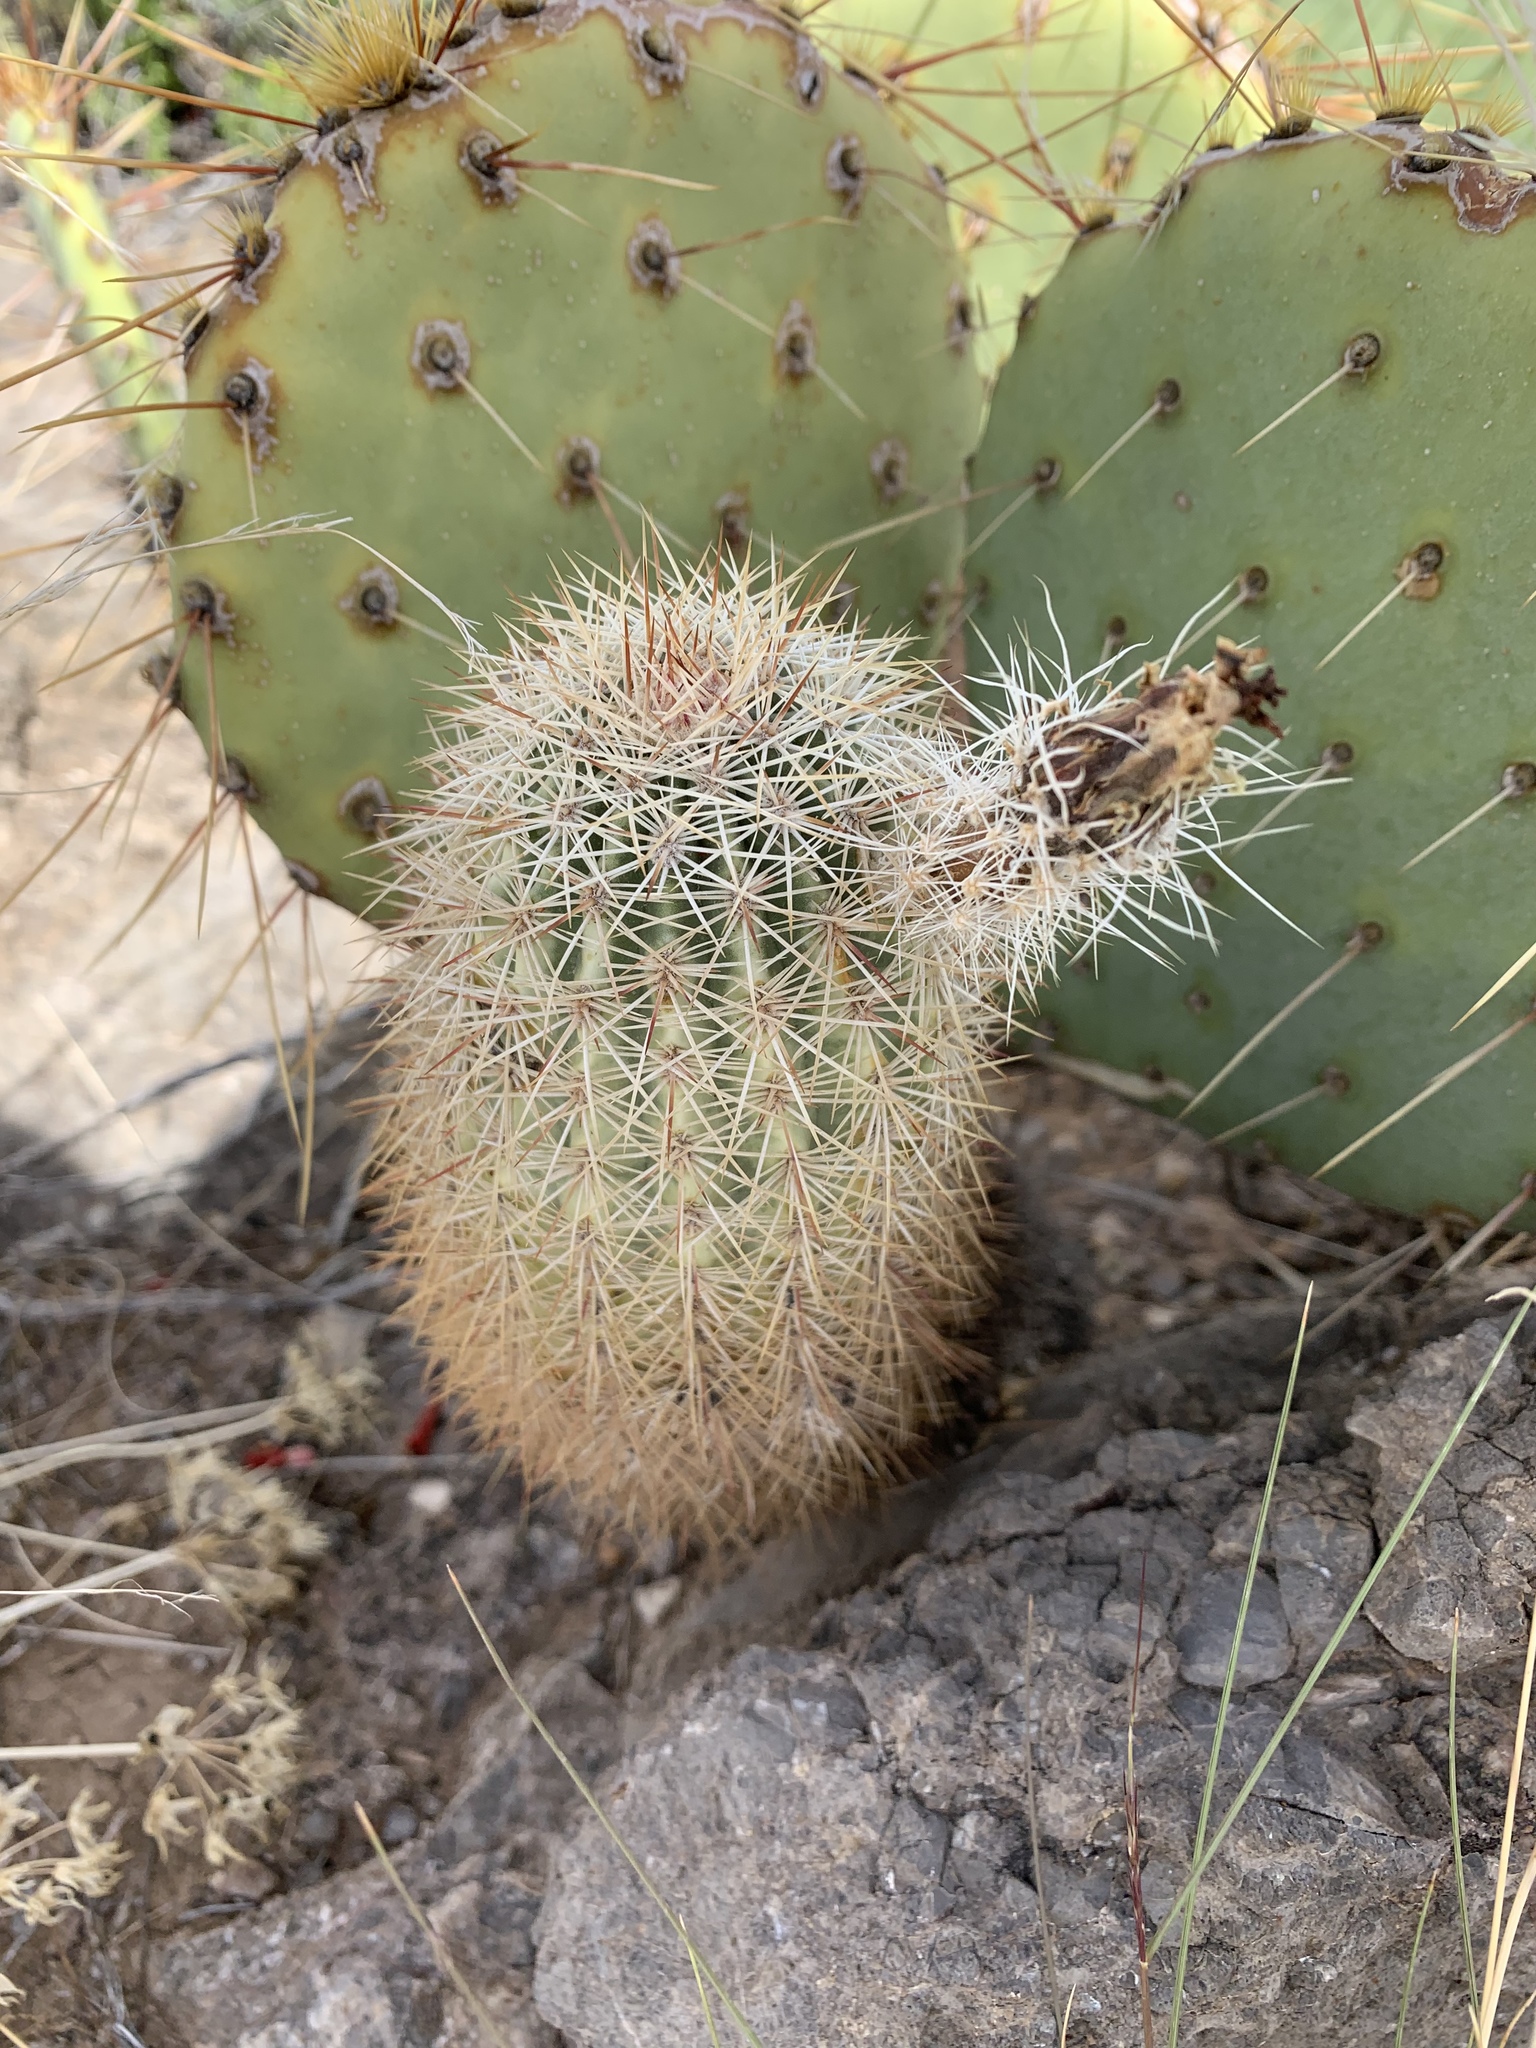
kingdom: Plantae
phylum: Tracheophyta
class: Magnoliopsida
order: Caryophyllales
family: Cactaceae
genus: Echinocereus
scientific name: Echinocereus dasyacanthus
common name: Spiny hedgehog cactus
